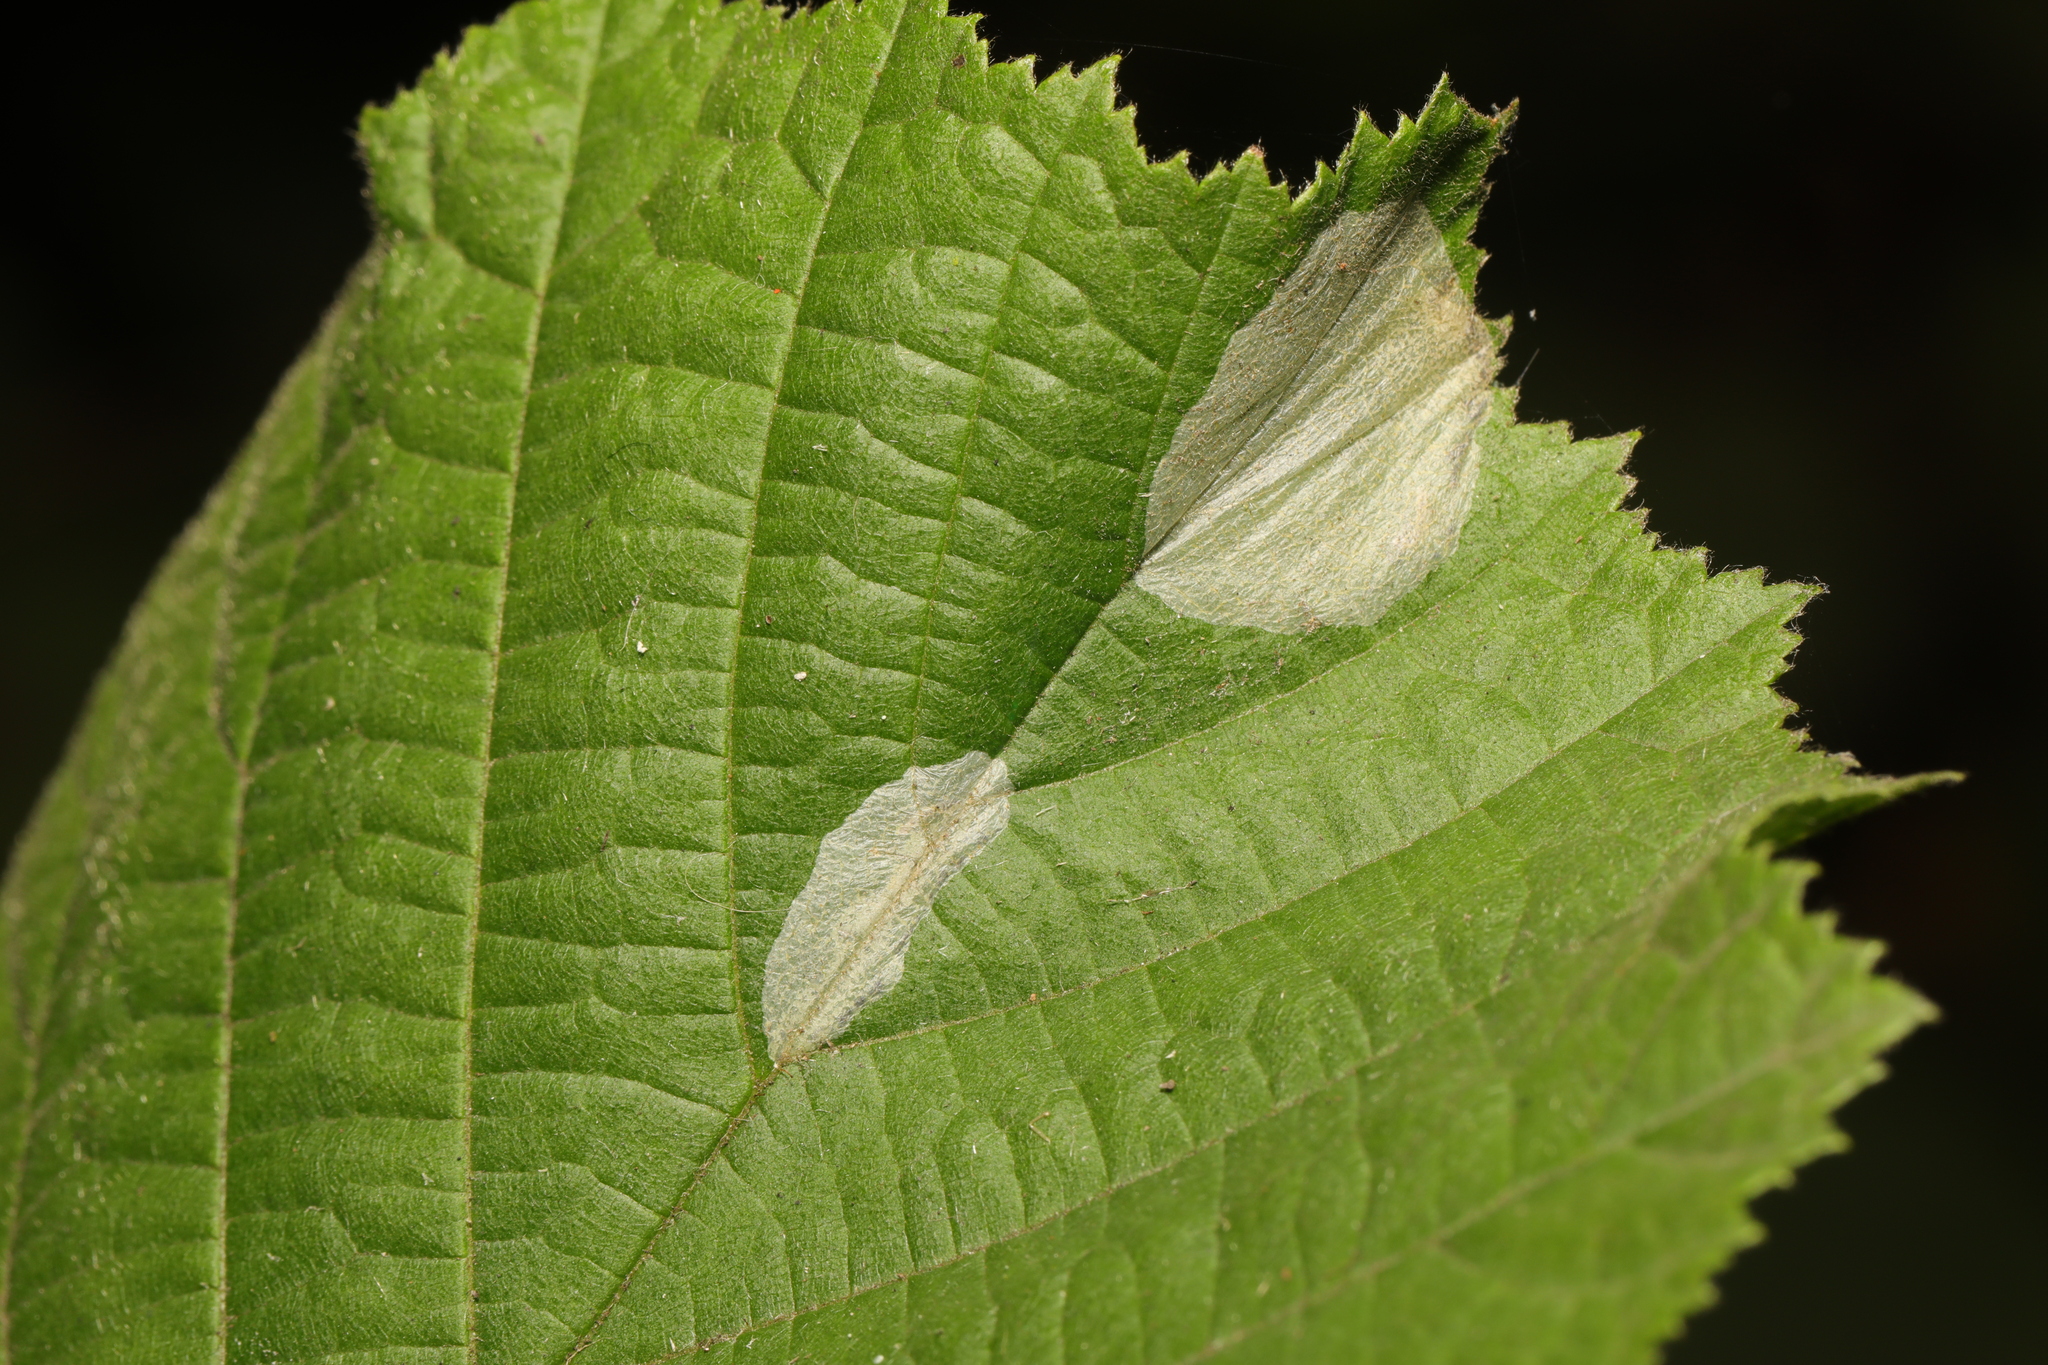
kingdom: Animalia
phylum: Arthropoda
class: Insecta
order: Lepidoptera
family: Gracillariidae
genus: Phyllonorycter
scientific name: Phyllonorycter coryli
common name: Nut-leaf blister moth
